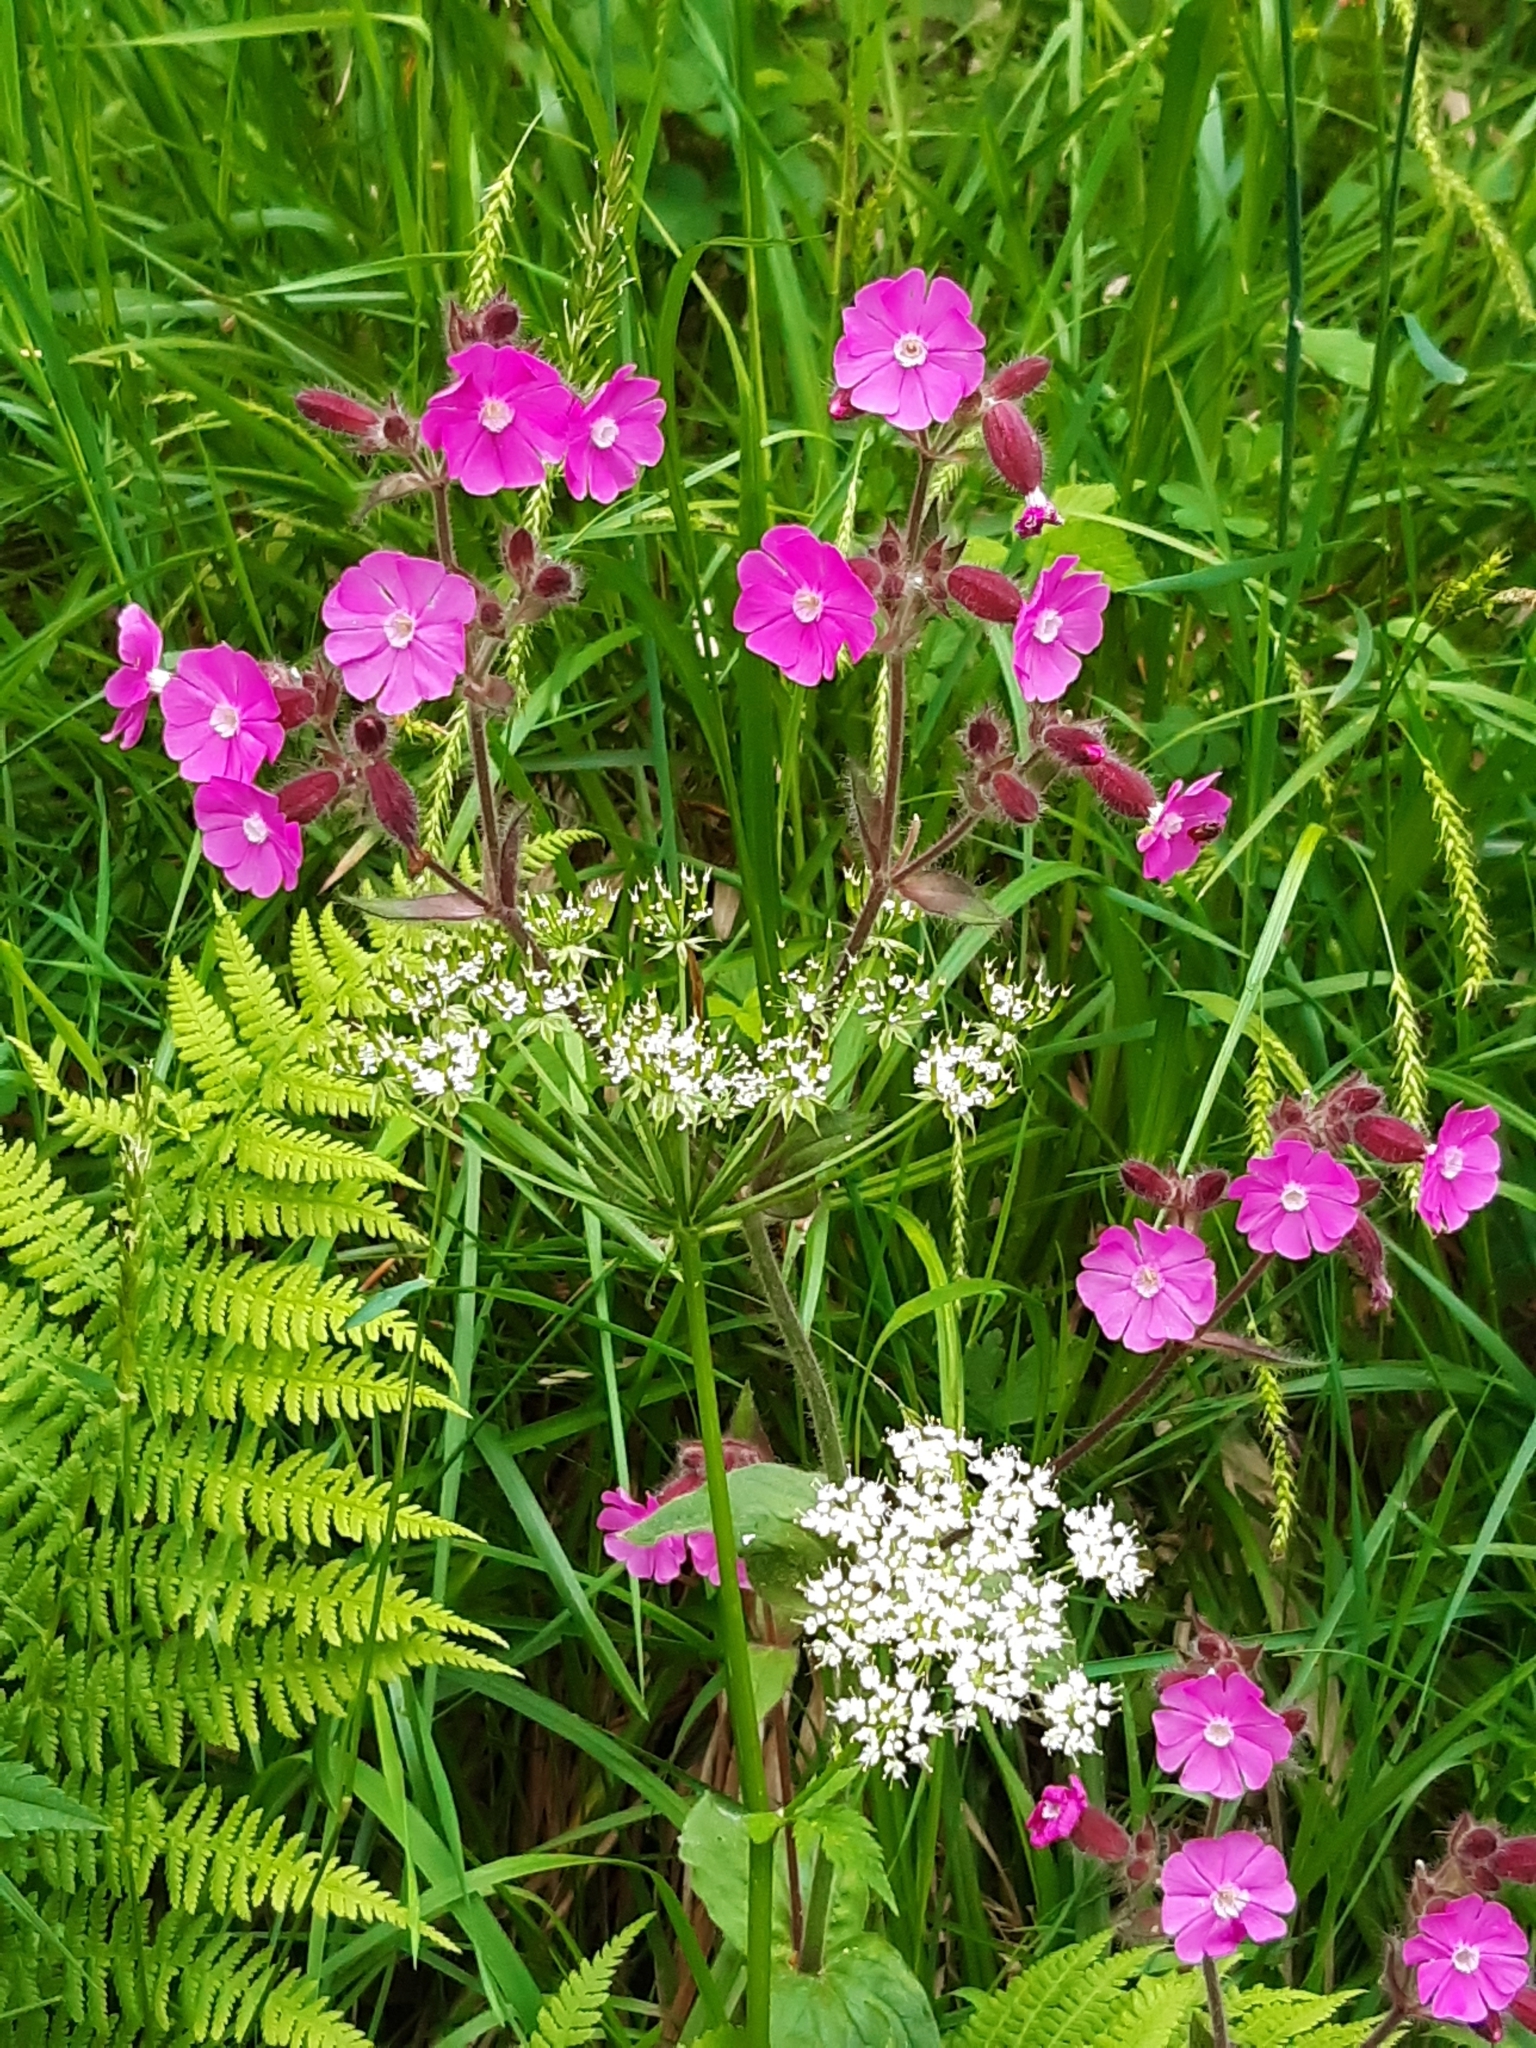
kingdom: Plantae
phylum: Tracheophyta
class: Magnoliopsida
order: Caryophyllales
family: Caryophyllaceae
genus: Silene
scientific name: Silene dioica
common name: Red campion
